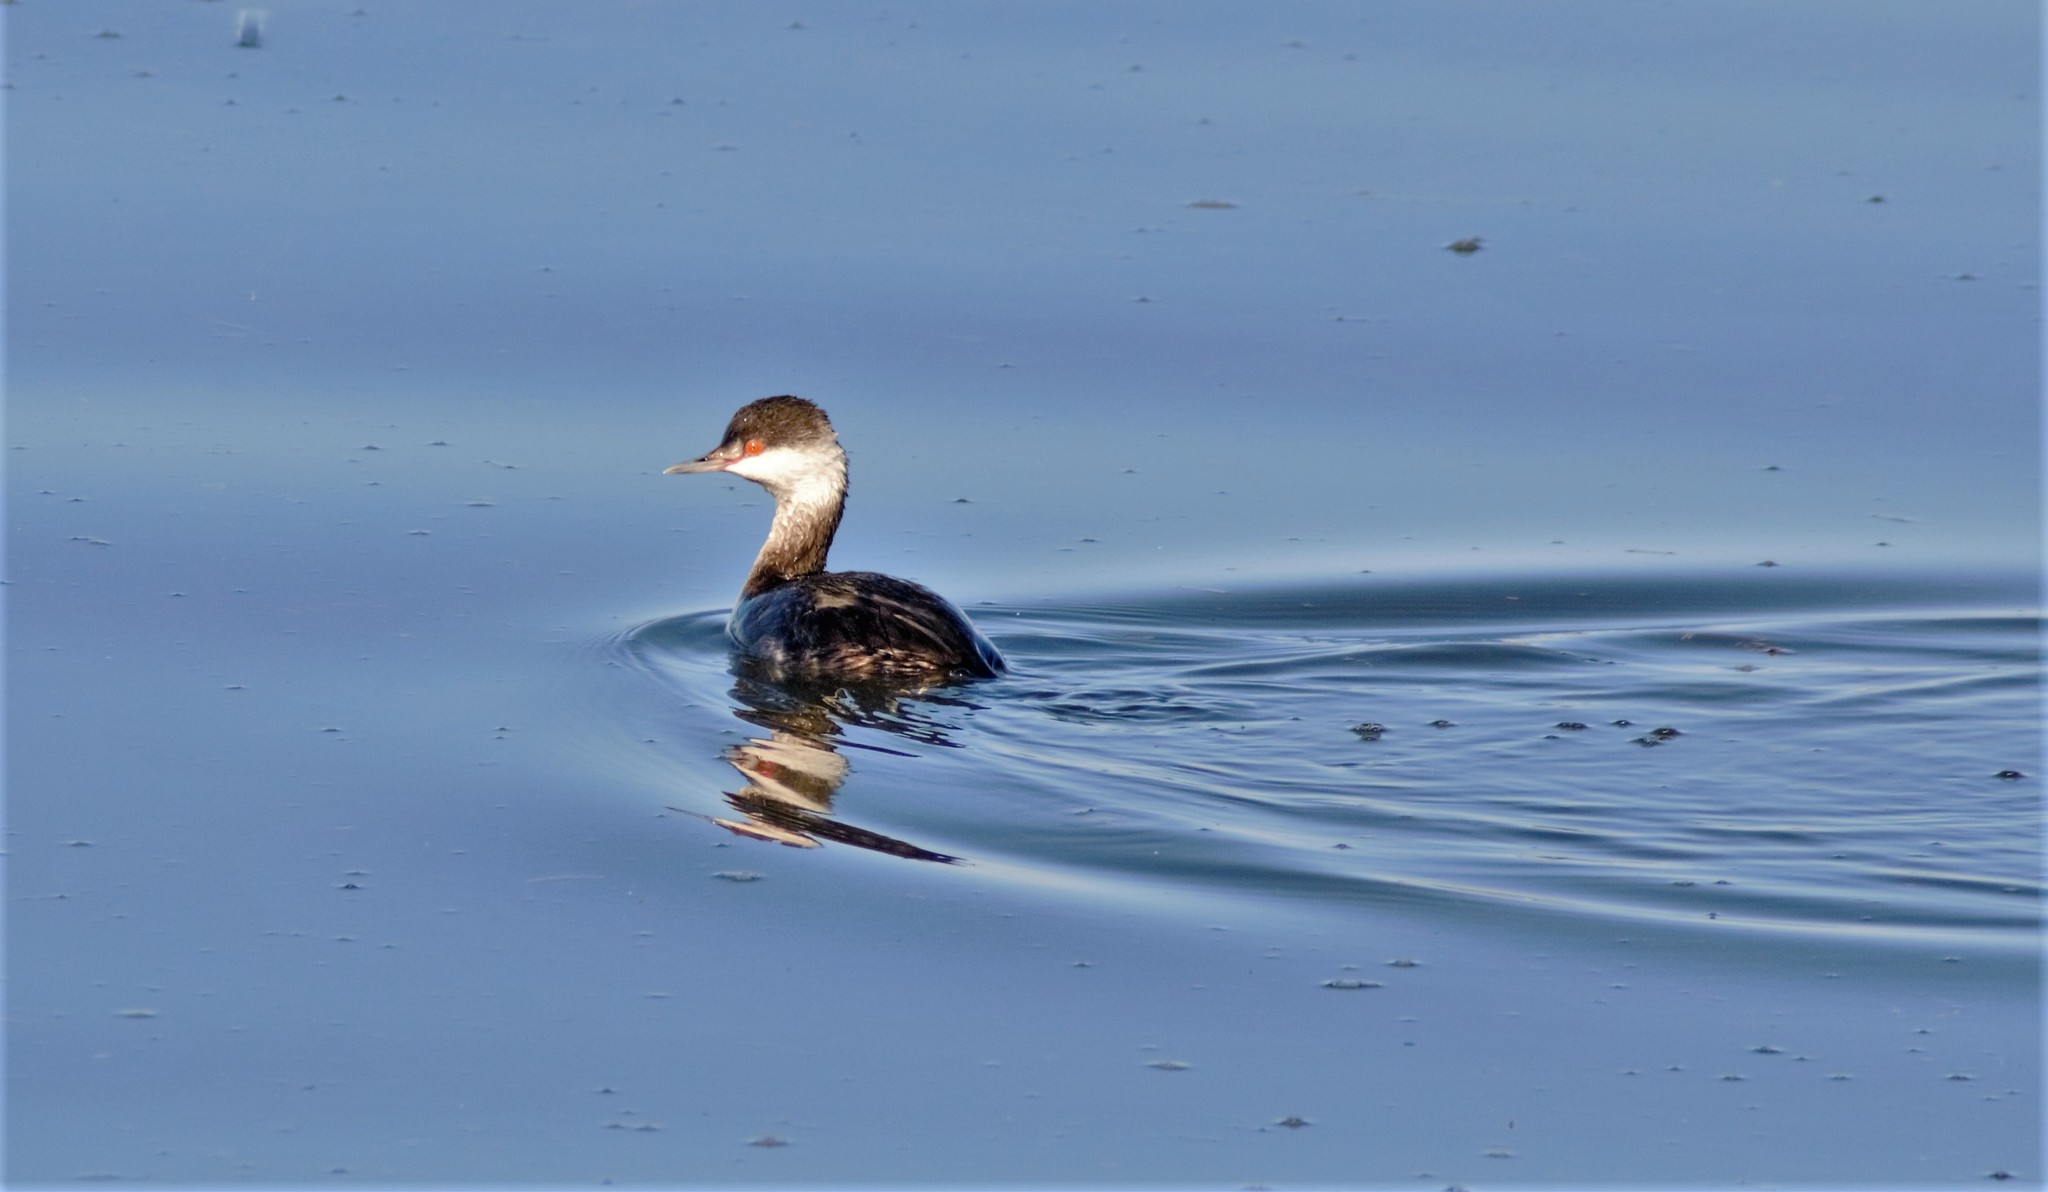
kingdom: Animalia
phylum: Chordata
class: Aves
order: Podicipediformes
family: Podicipedidae
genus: Podiceps
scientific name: Podiceps auritus
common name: Horned grebe
